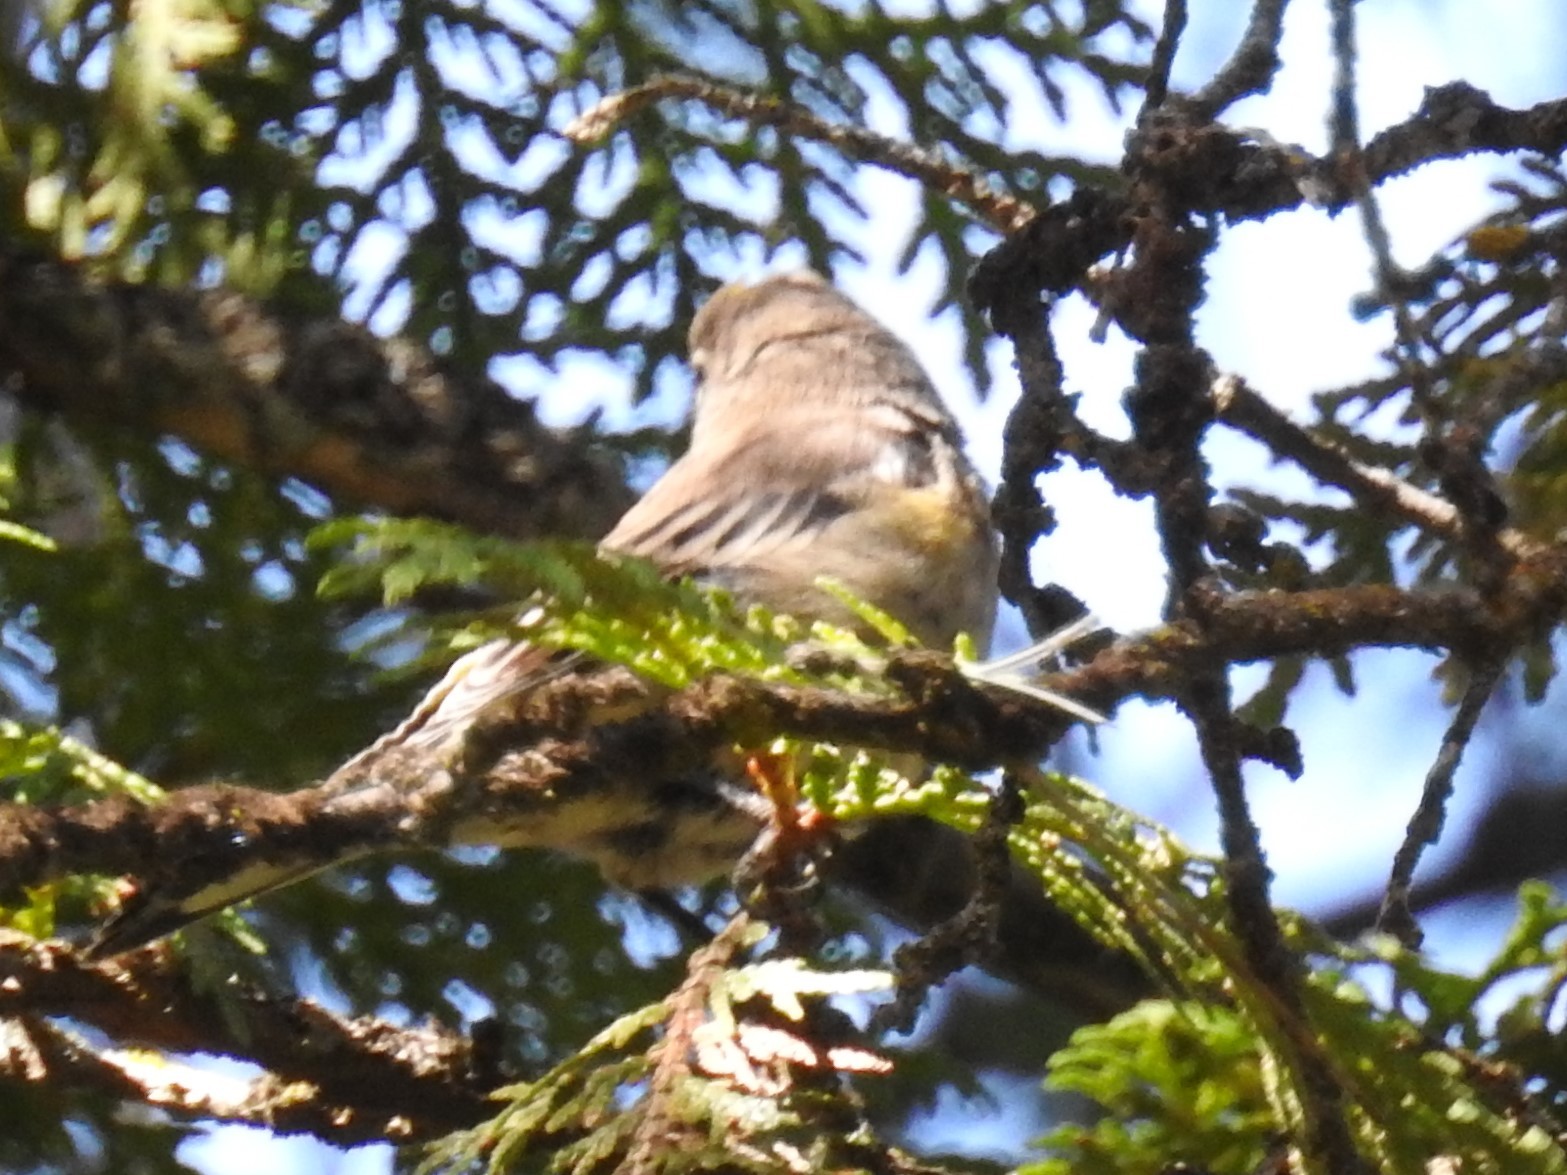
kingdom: Animalia
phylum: Chordata
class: Aves
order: Passeriformes
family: Parulidae
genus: Setophaga
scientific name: Setophaga coronata
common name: Myrtle warbler
